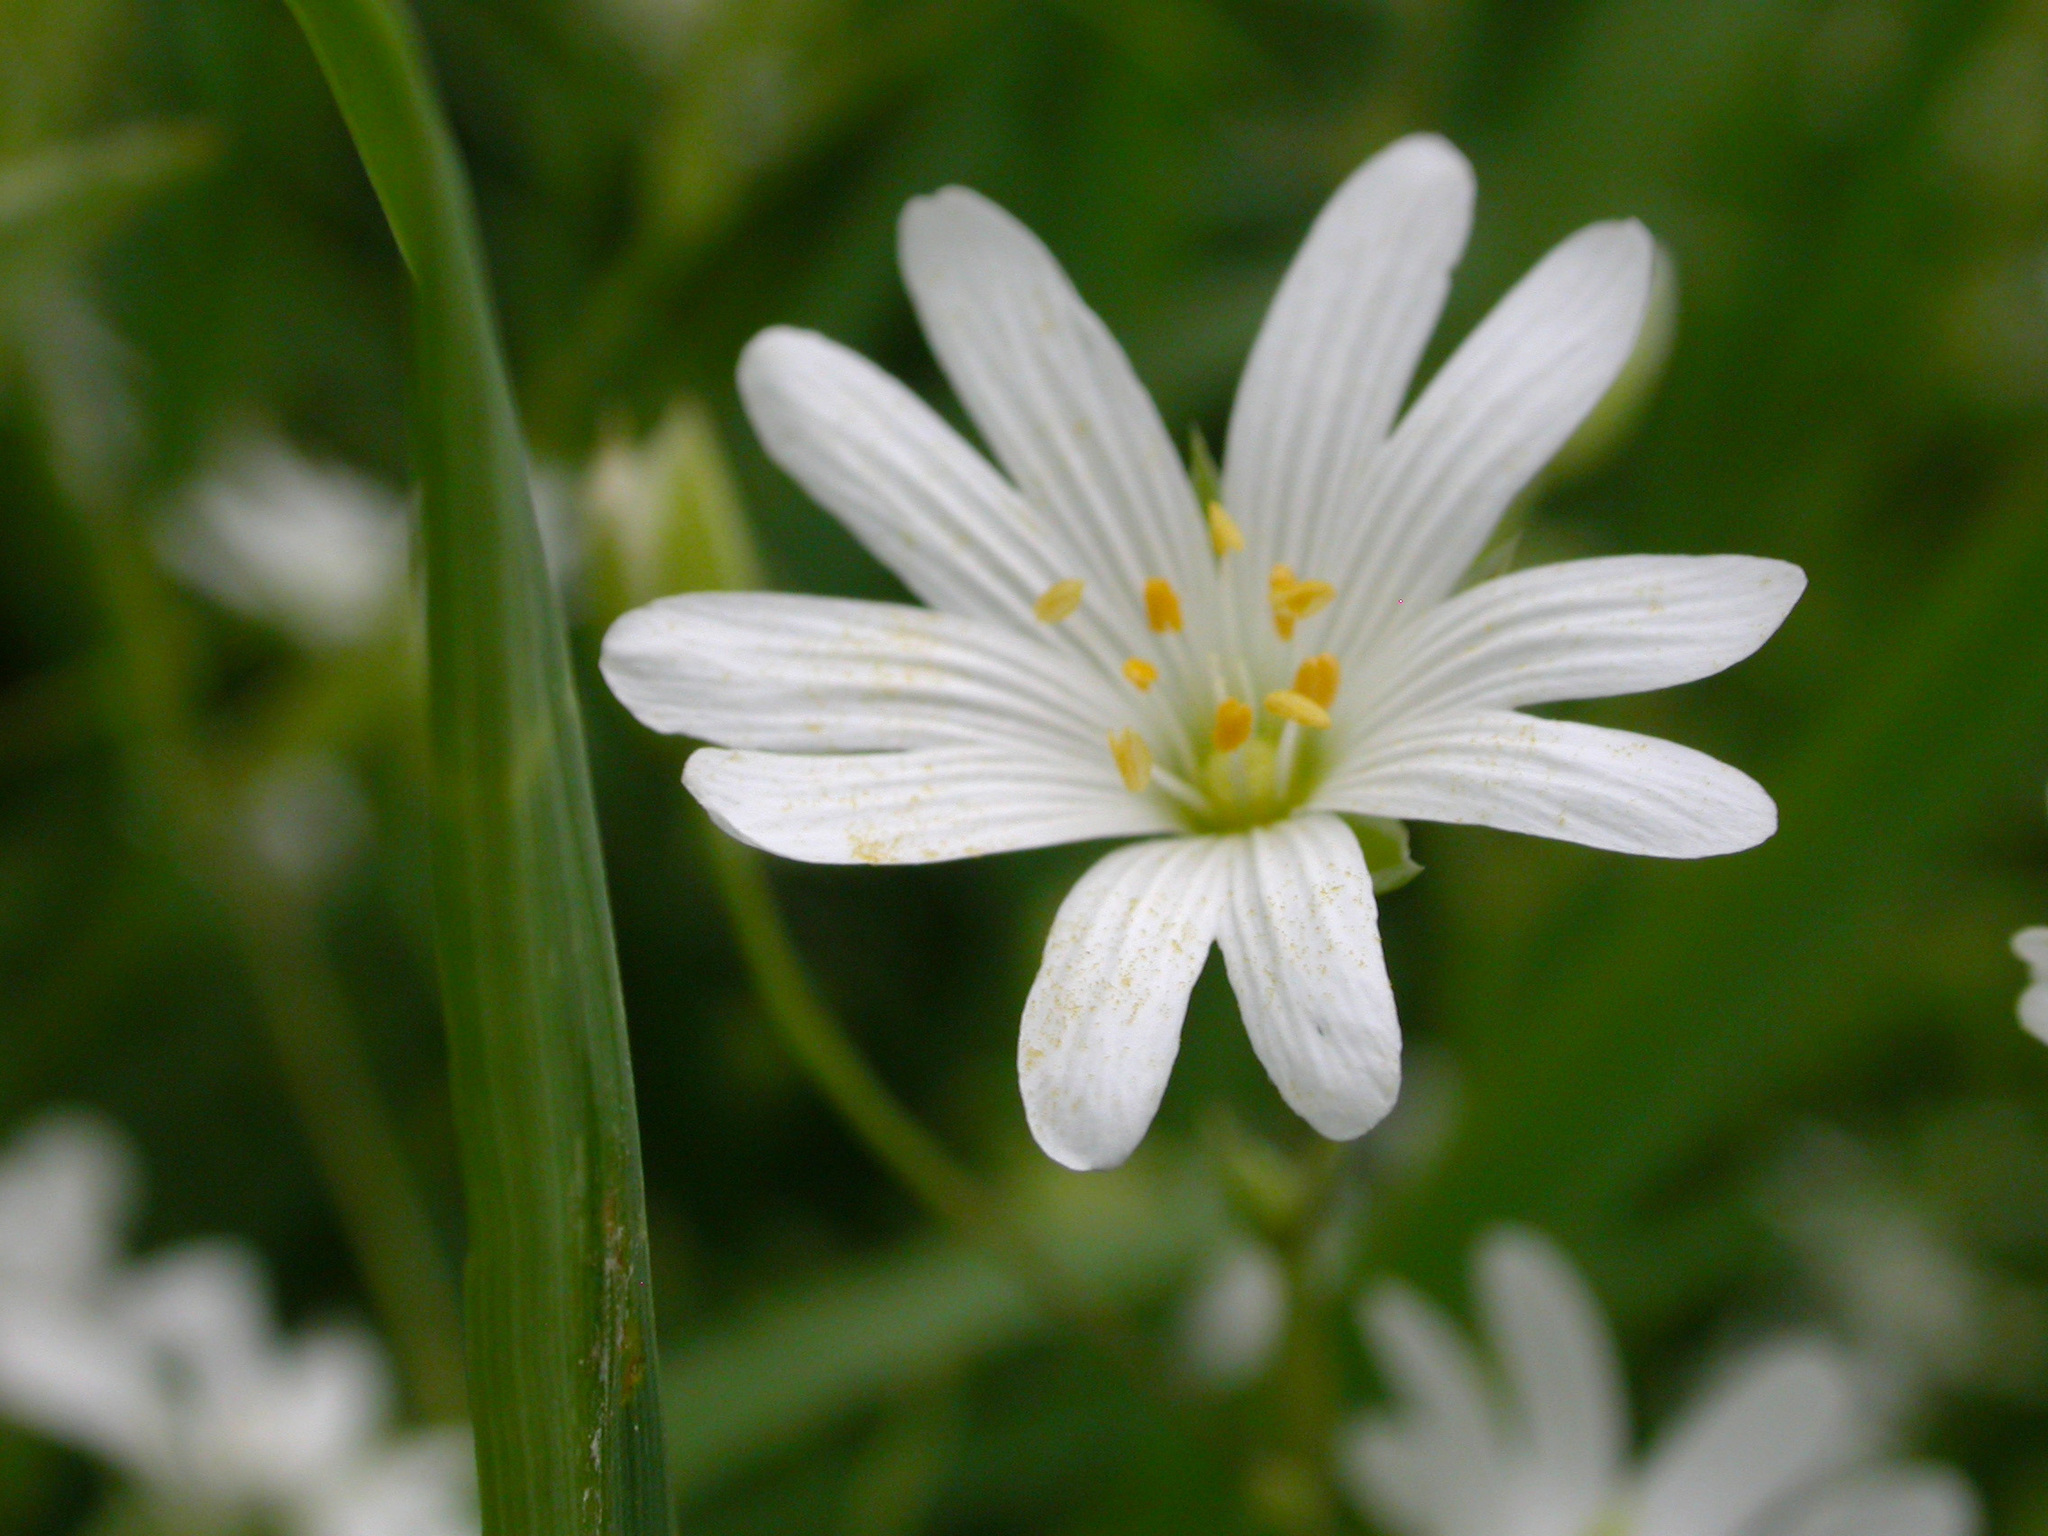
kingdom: Plantae
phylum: Tracheophyta
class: Magnoliopsida
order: Caryophyllales
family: Caryophyllaceae
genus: Rabelera
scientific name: Rabelera holostea
